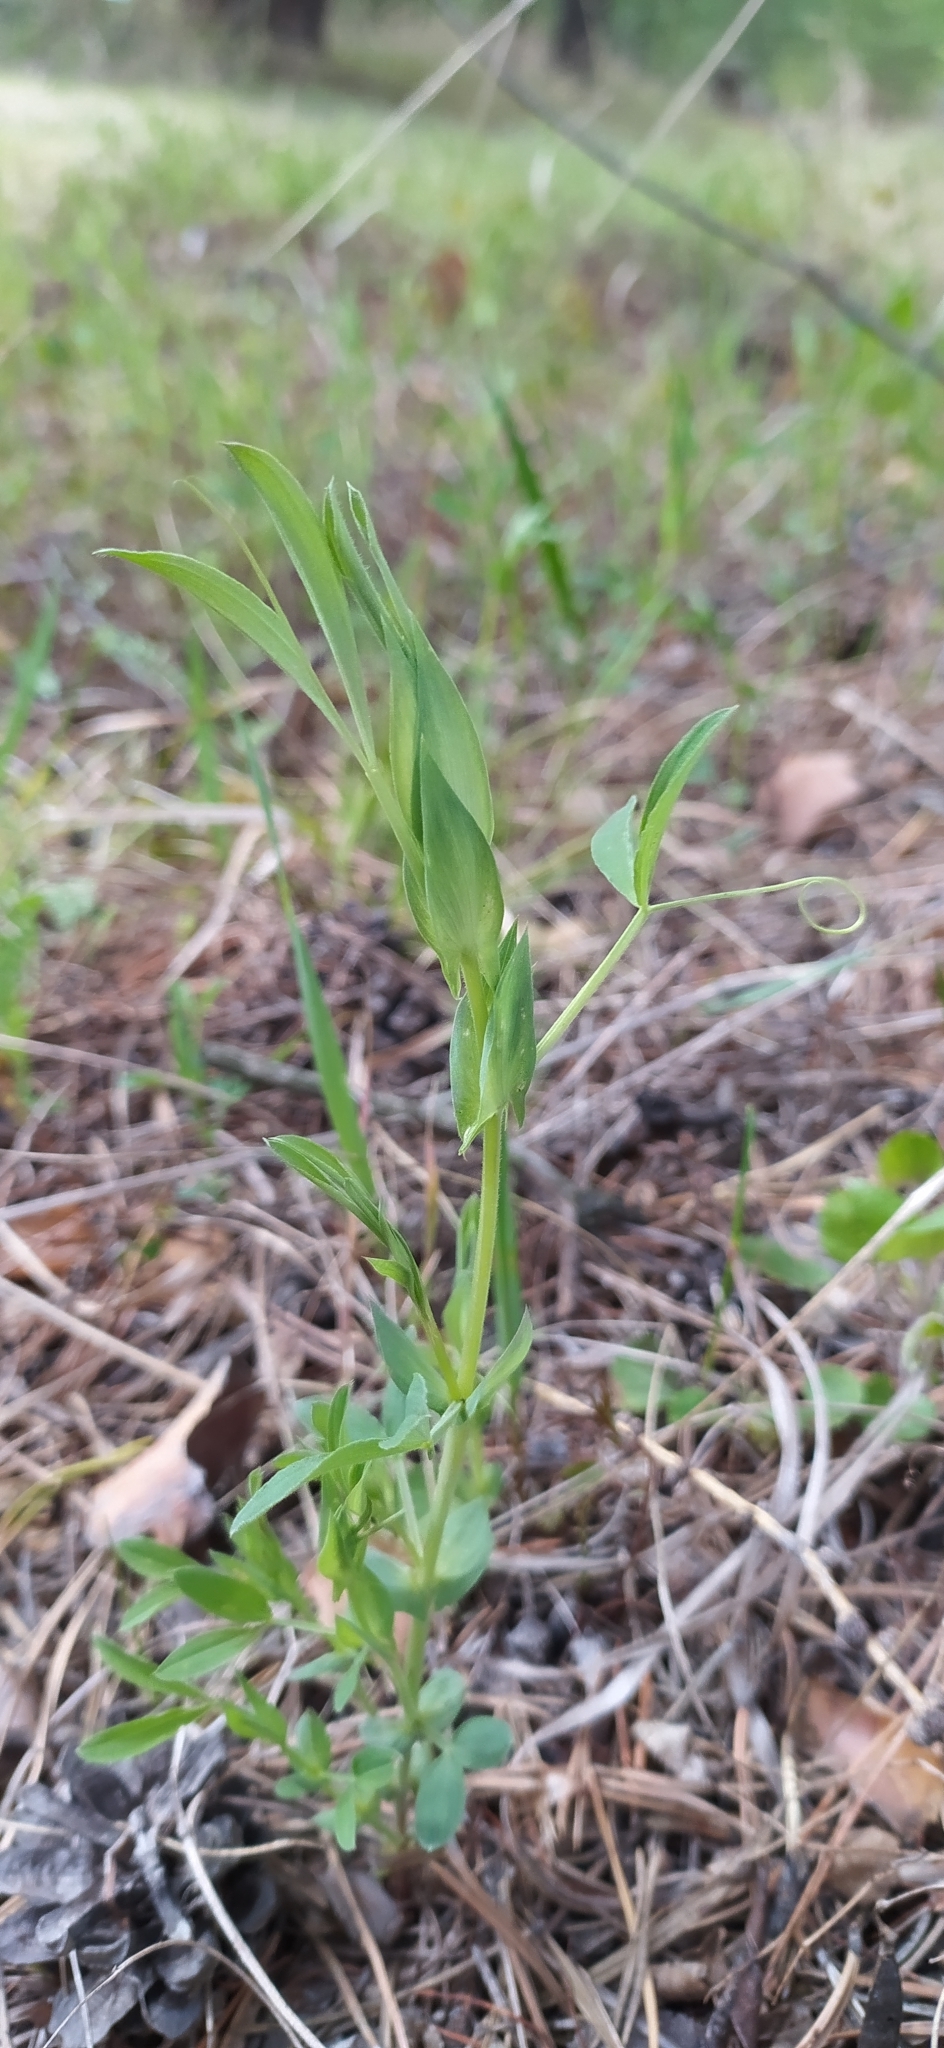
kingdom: Plantae
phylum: Tracheophyta
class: Magnoliopsida
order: Fabales
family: Fabaceae
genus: Lathyrus
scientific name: Lathyrus pratensis
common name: Meadow vetchling
